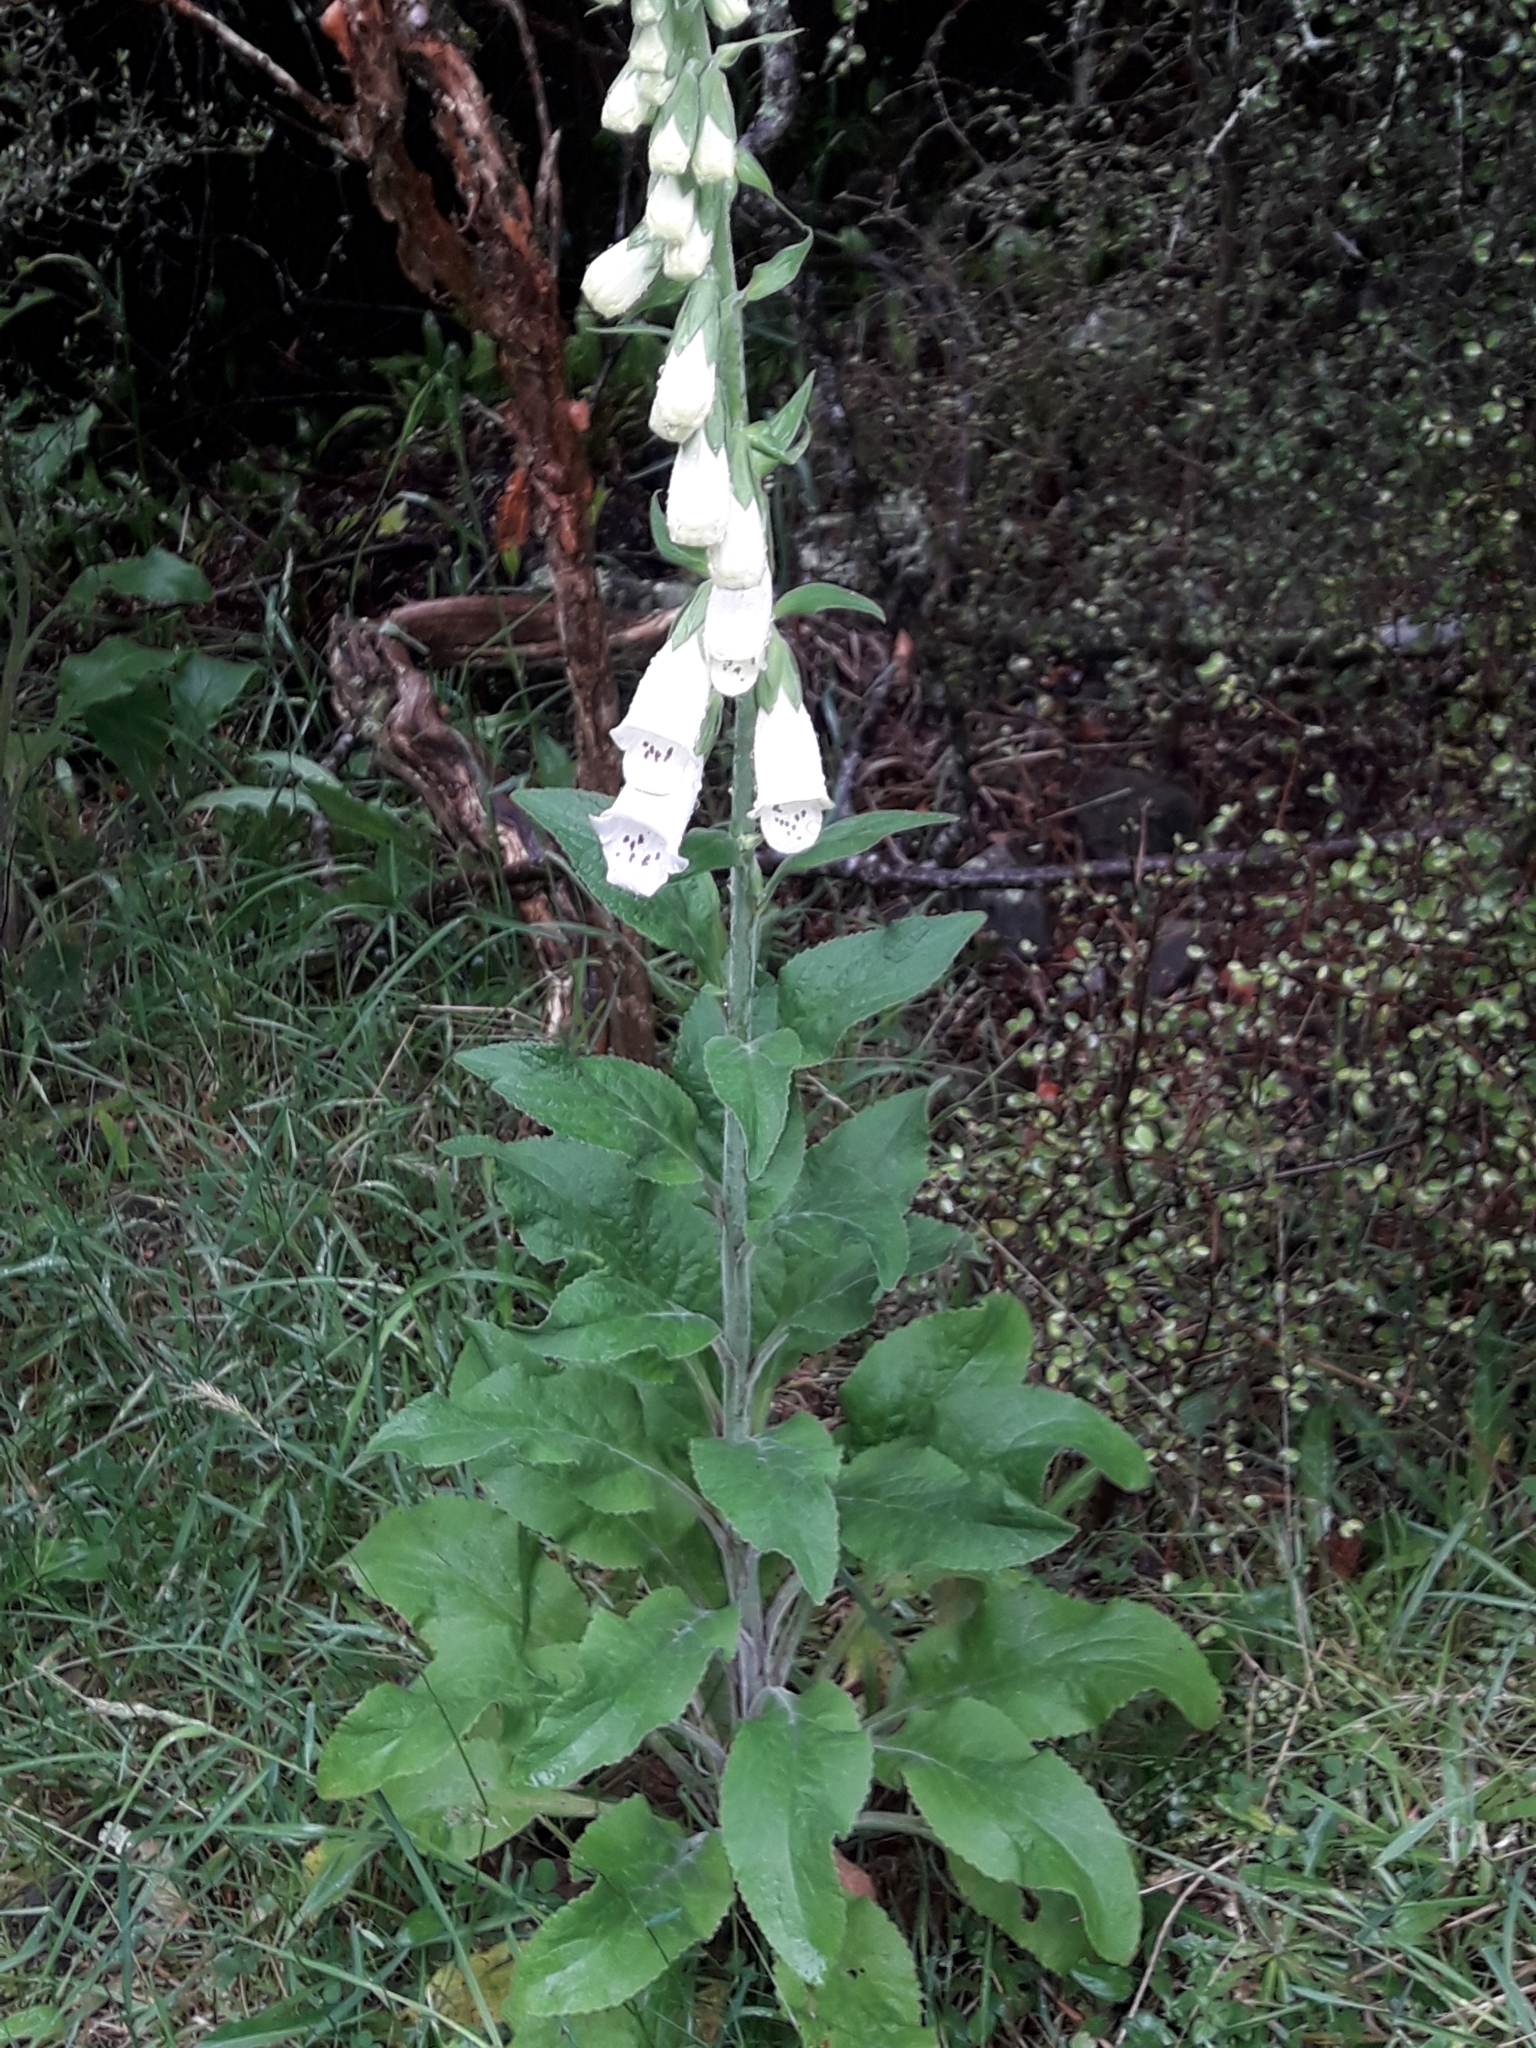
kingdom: Plantae
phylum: Tracheophyta
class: Magnoliopsida
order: Lamiales
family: Plantaginaceae
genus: Digitalis
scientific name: Digitalis purpurea
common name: Foxglove
